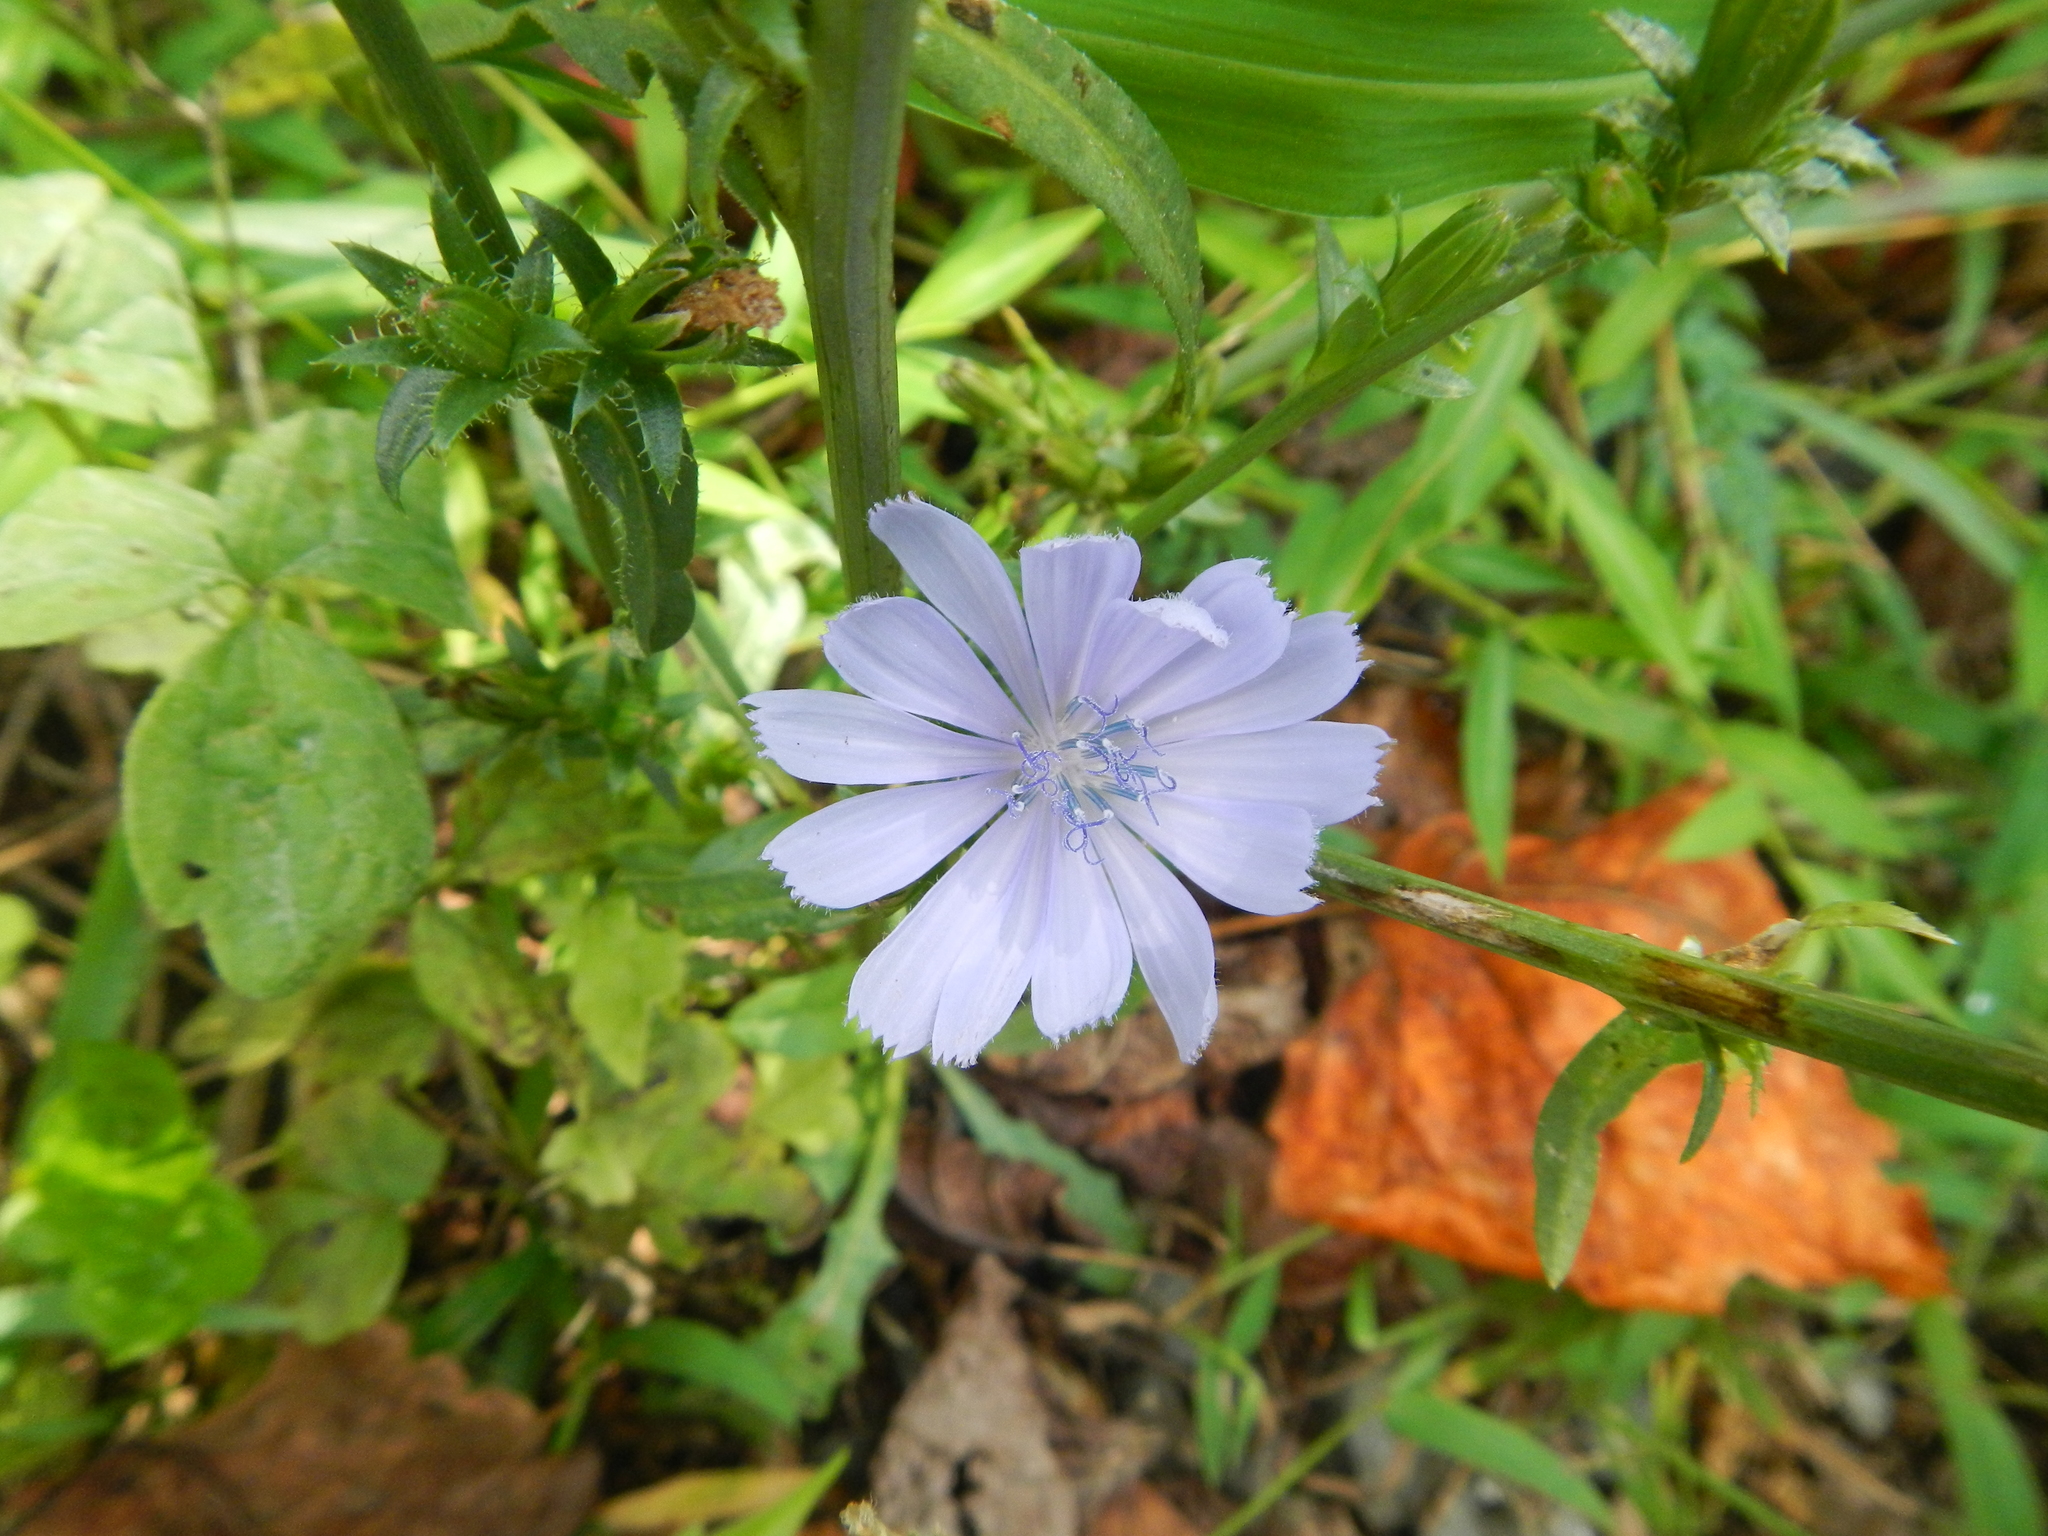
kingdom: Plantae
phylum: Tracheophyta
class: Magnoliopsida
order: Asterales
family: Asteraceae
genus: Cichorium
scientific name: Cichorium intybus
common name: Chicory
